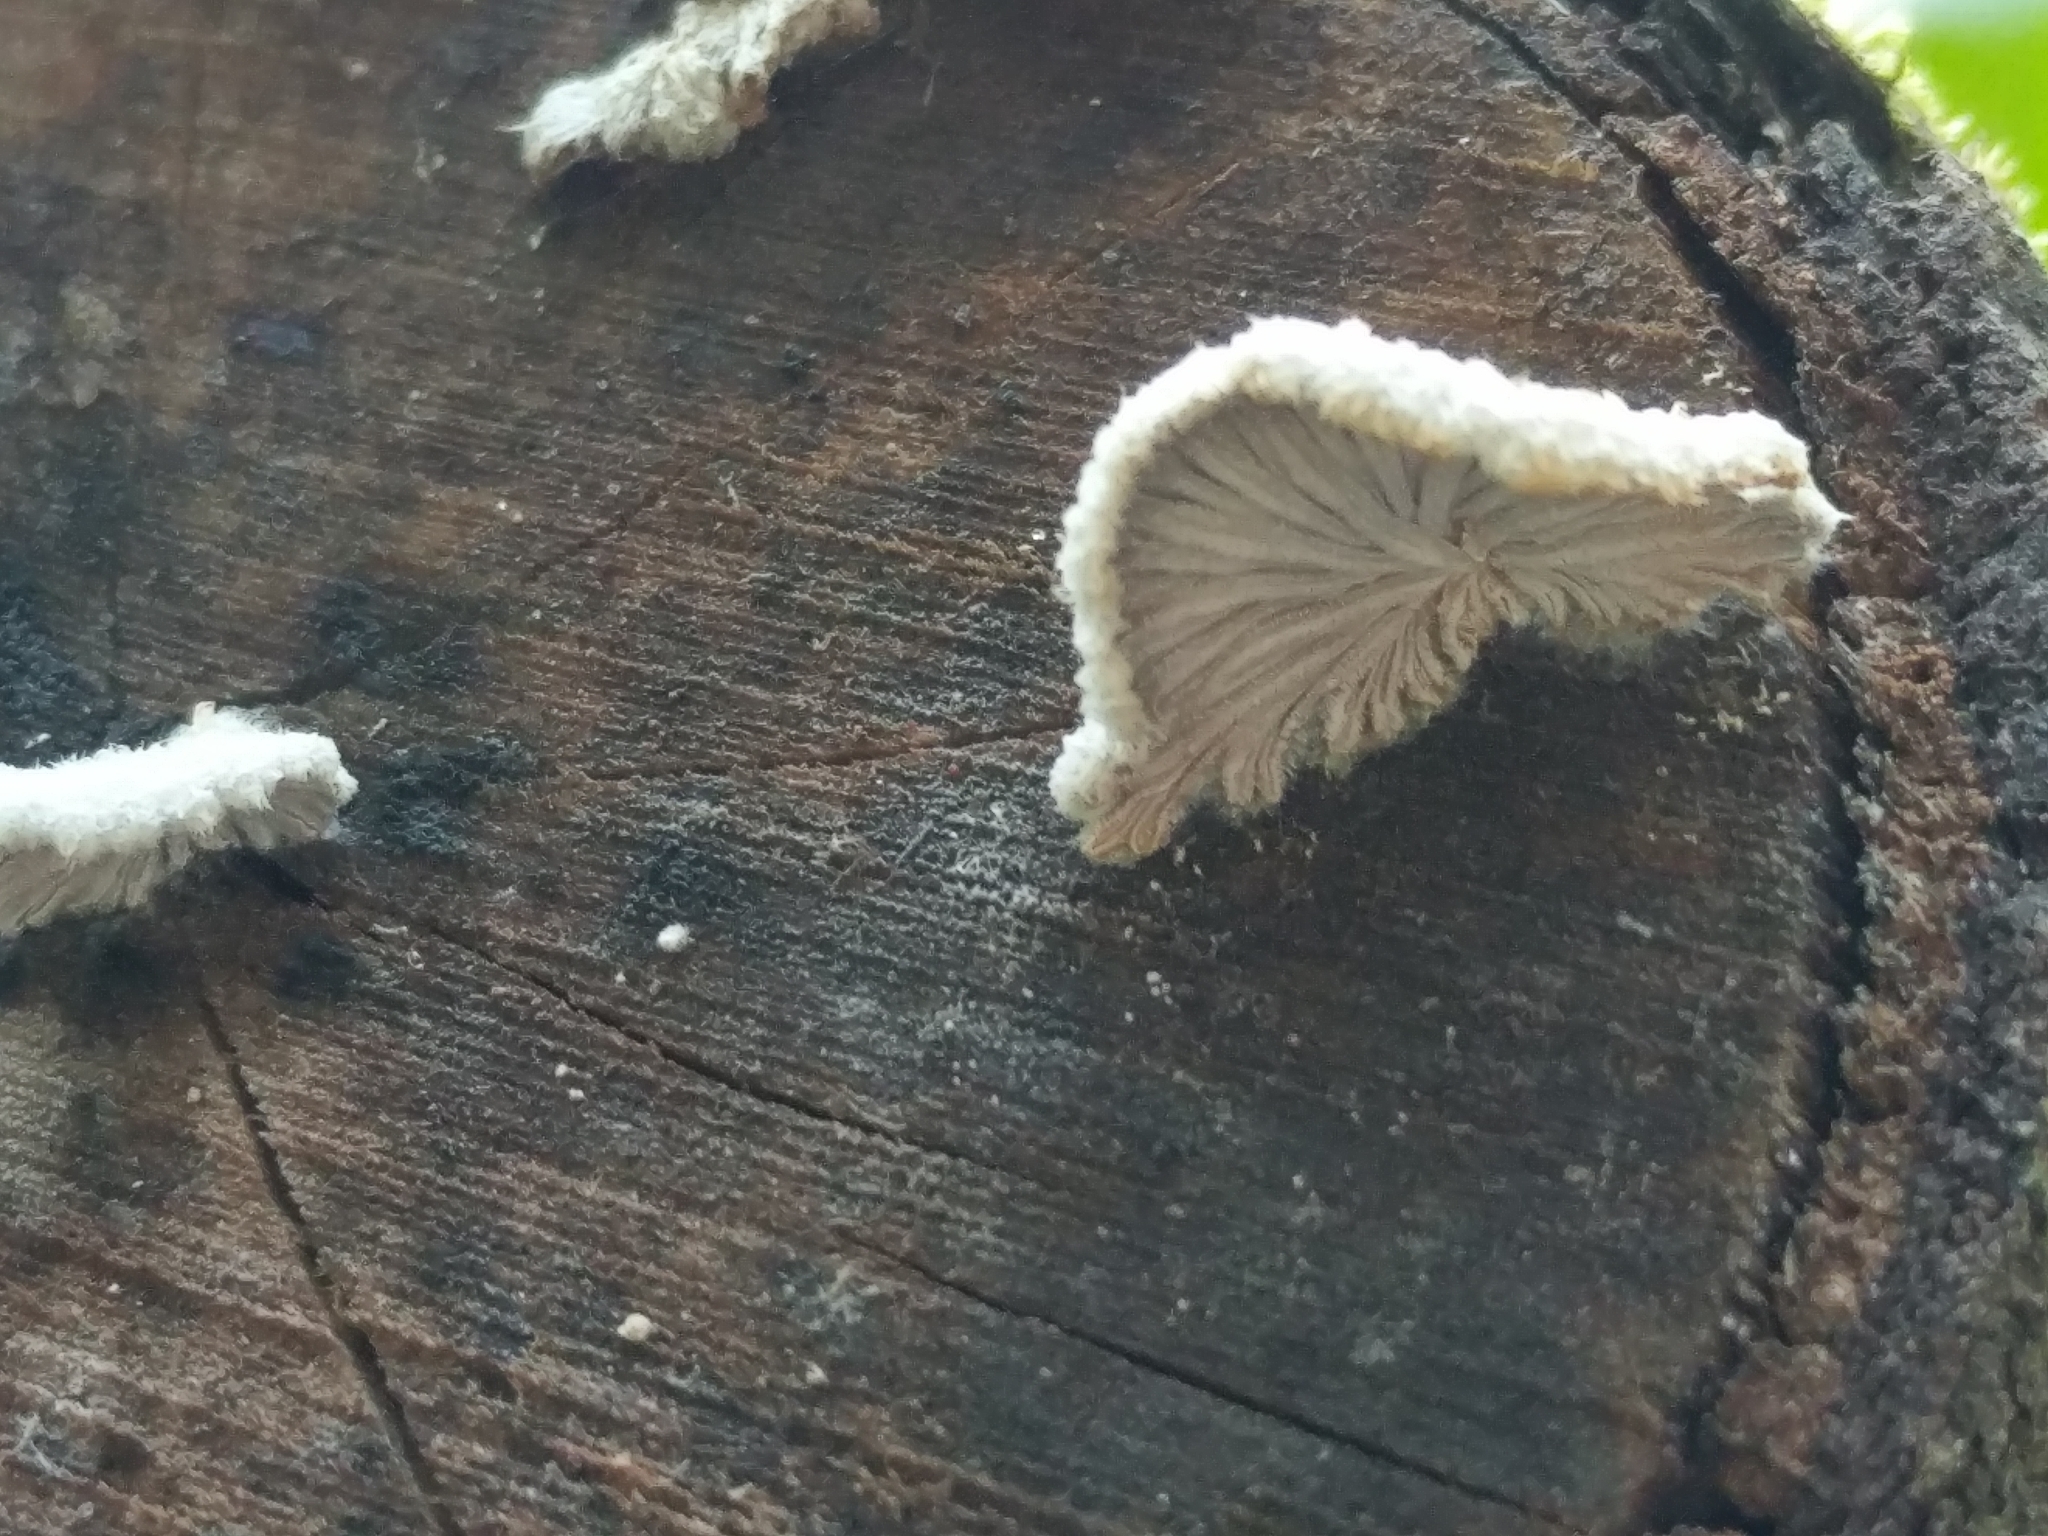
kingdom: Fungi
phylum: Basidiomycota
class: Agaricomycetes
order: Agaricales
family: Schizophyllaceae
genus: Schizophyllum
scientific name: Schizophyllum commune
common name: Common porecrust
